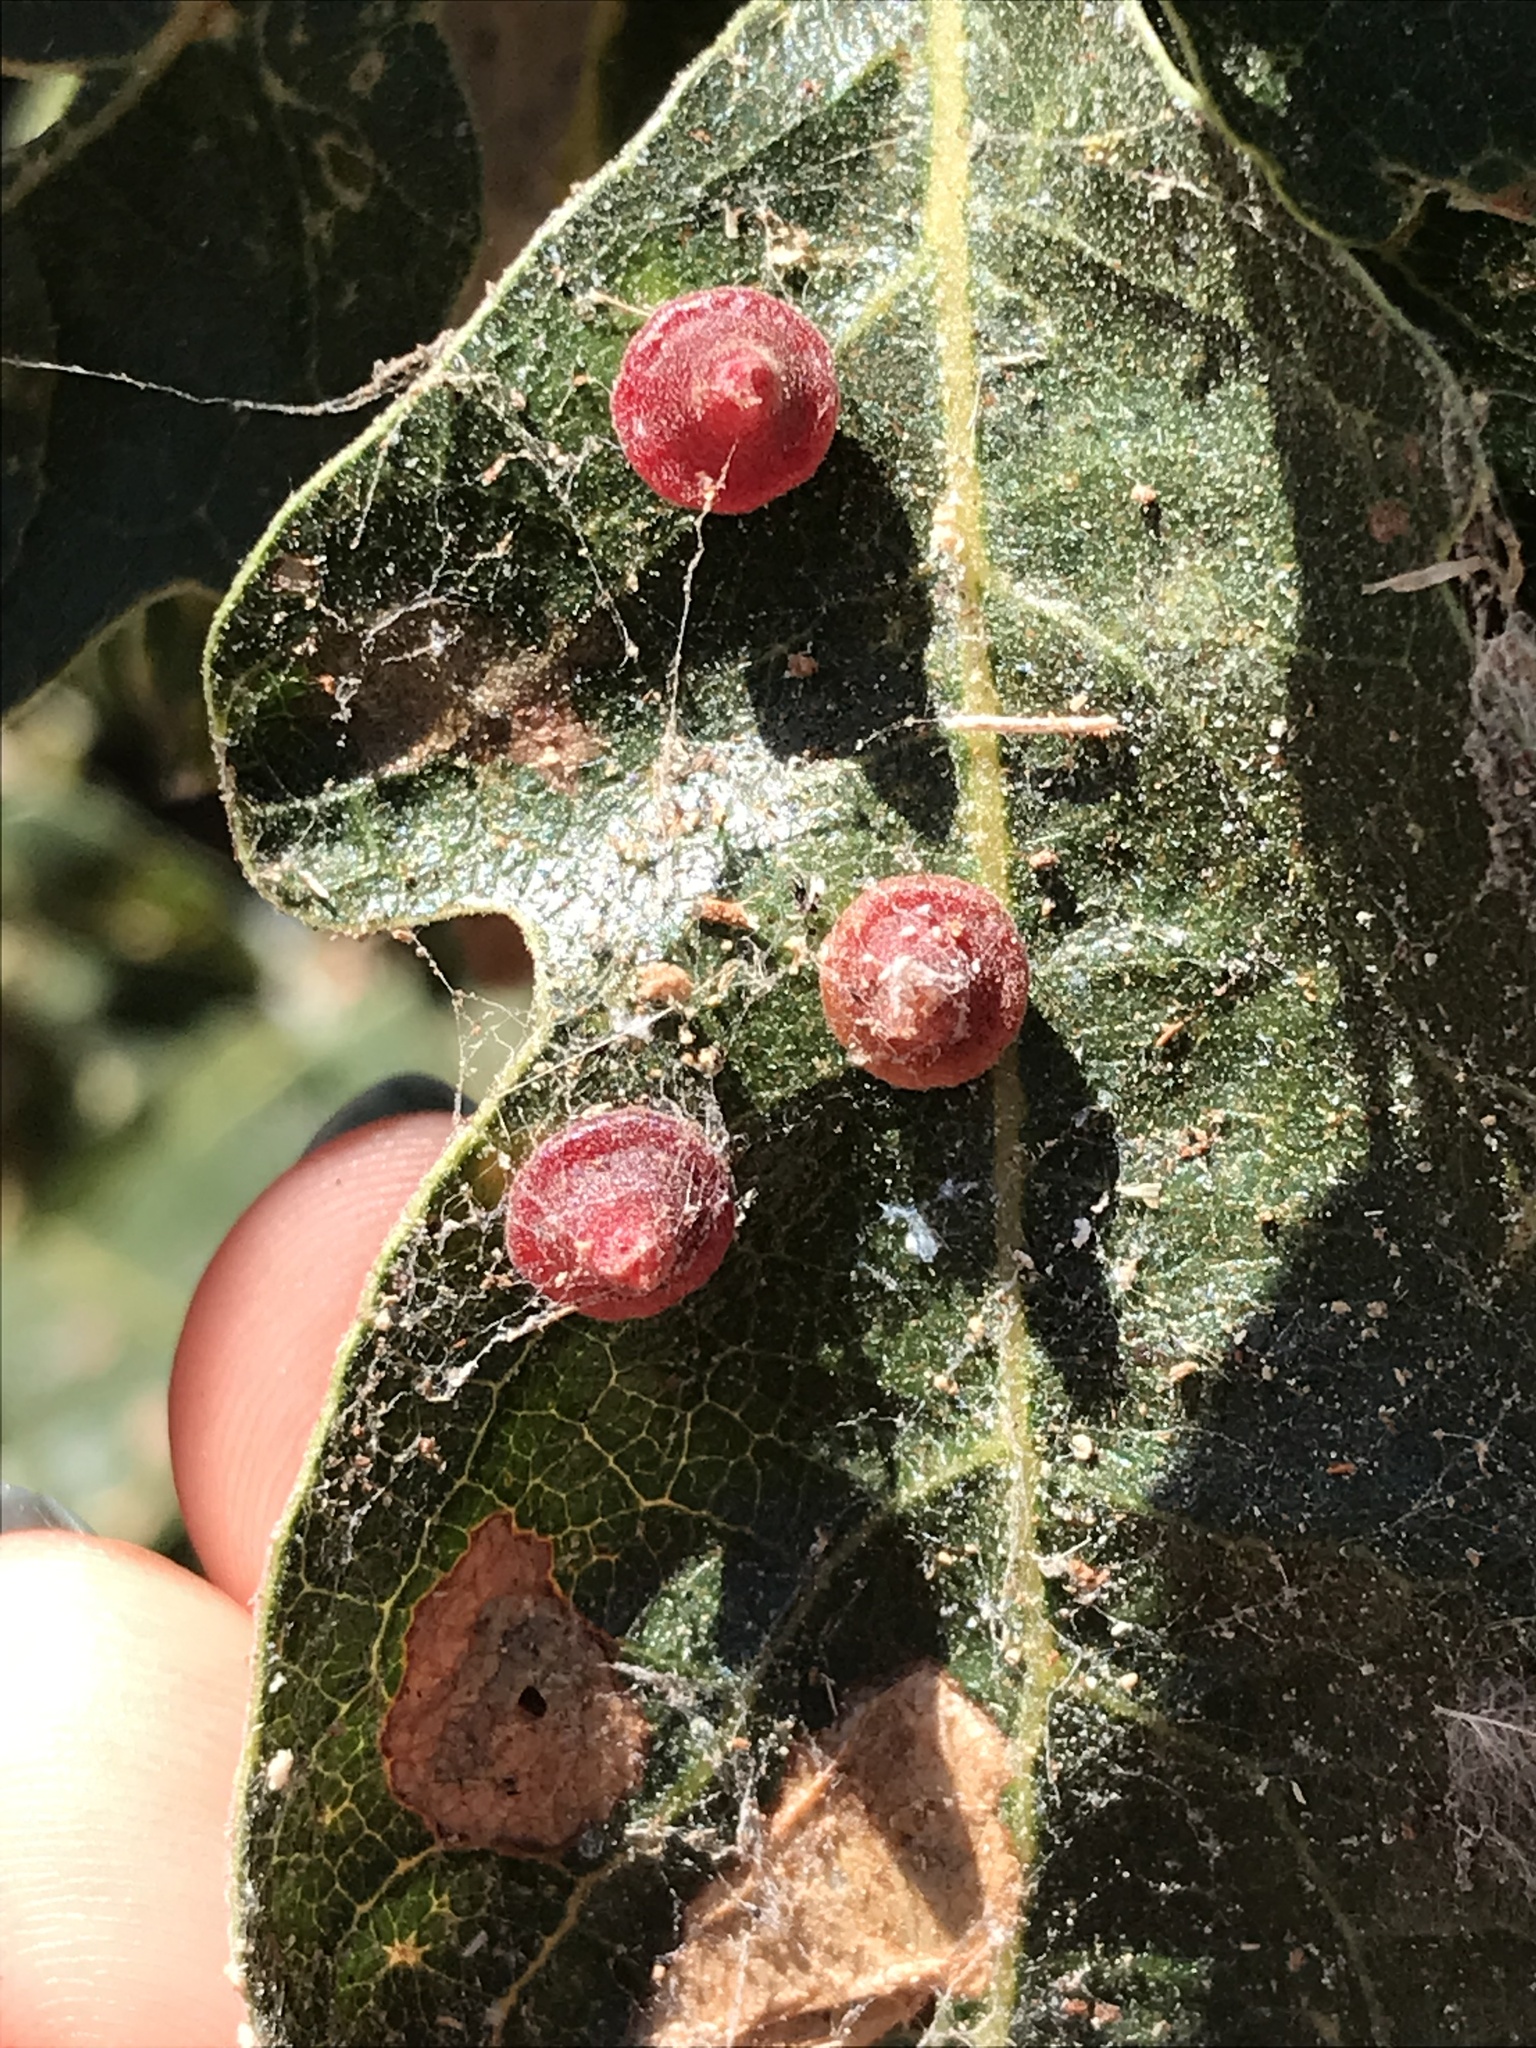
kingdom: Animalia
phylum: Arthropoda
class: Insecta
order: Hymenoptera
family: Cynipidae
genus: Andricus
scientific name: Andricus
